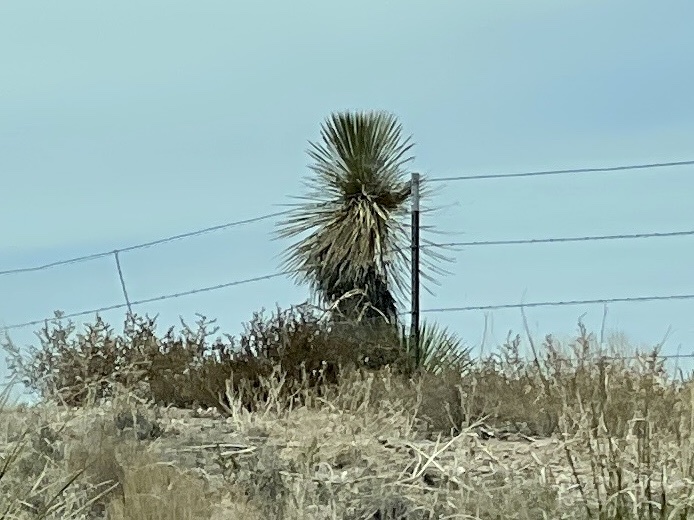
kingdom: Plantae
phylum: Tracheophyta
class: Liliopsida
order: Asparagales
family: Asparagaceae
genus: Yucca
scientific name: Yucca elata
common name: Palmella
